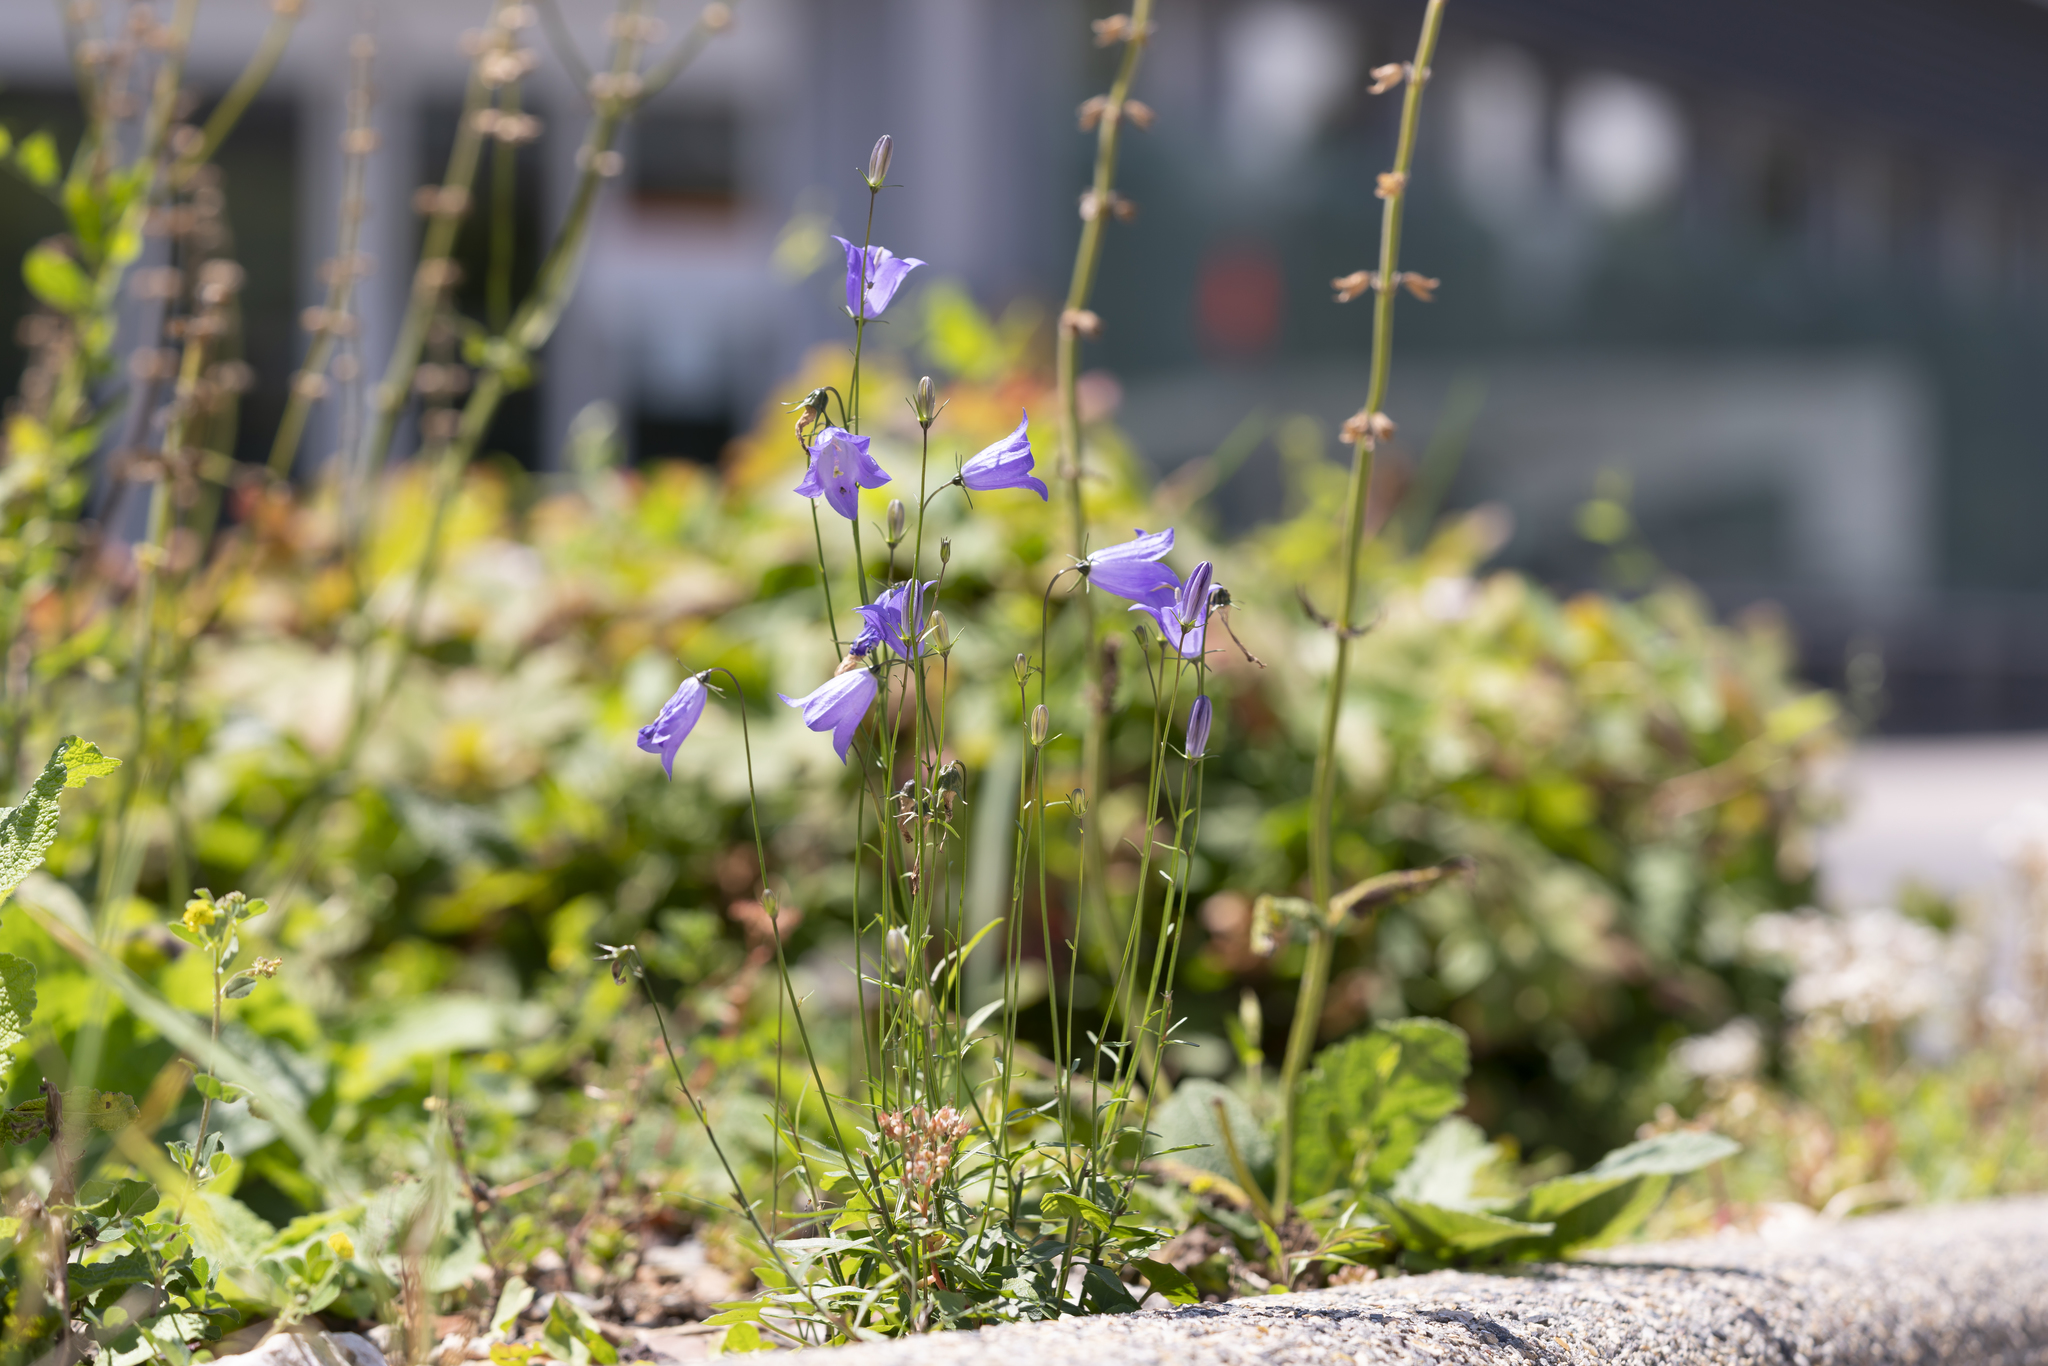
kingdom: Plantae
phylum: Tracheophyta
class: Magnoliopsida
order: Asterales
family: Campanulaceae
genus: Campanula
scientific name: Campanula rotundifolia
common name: Harebell
